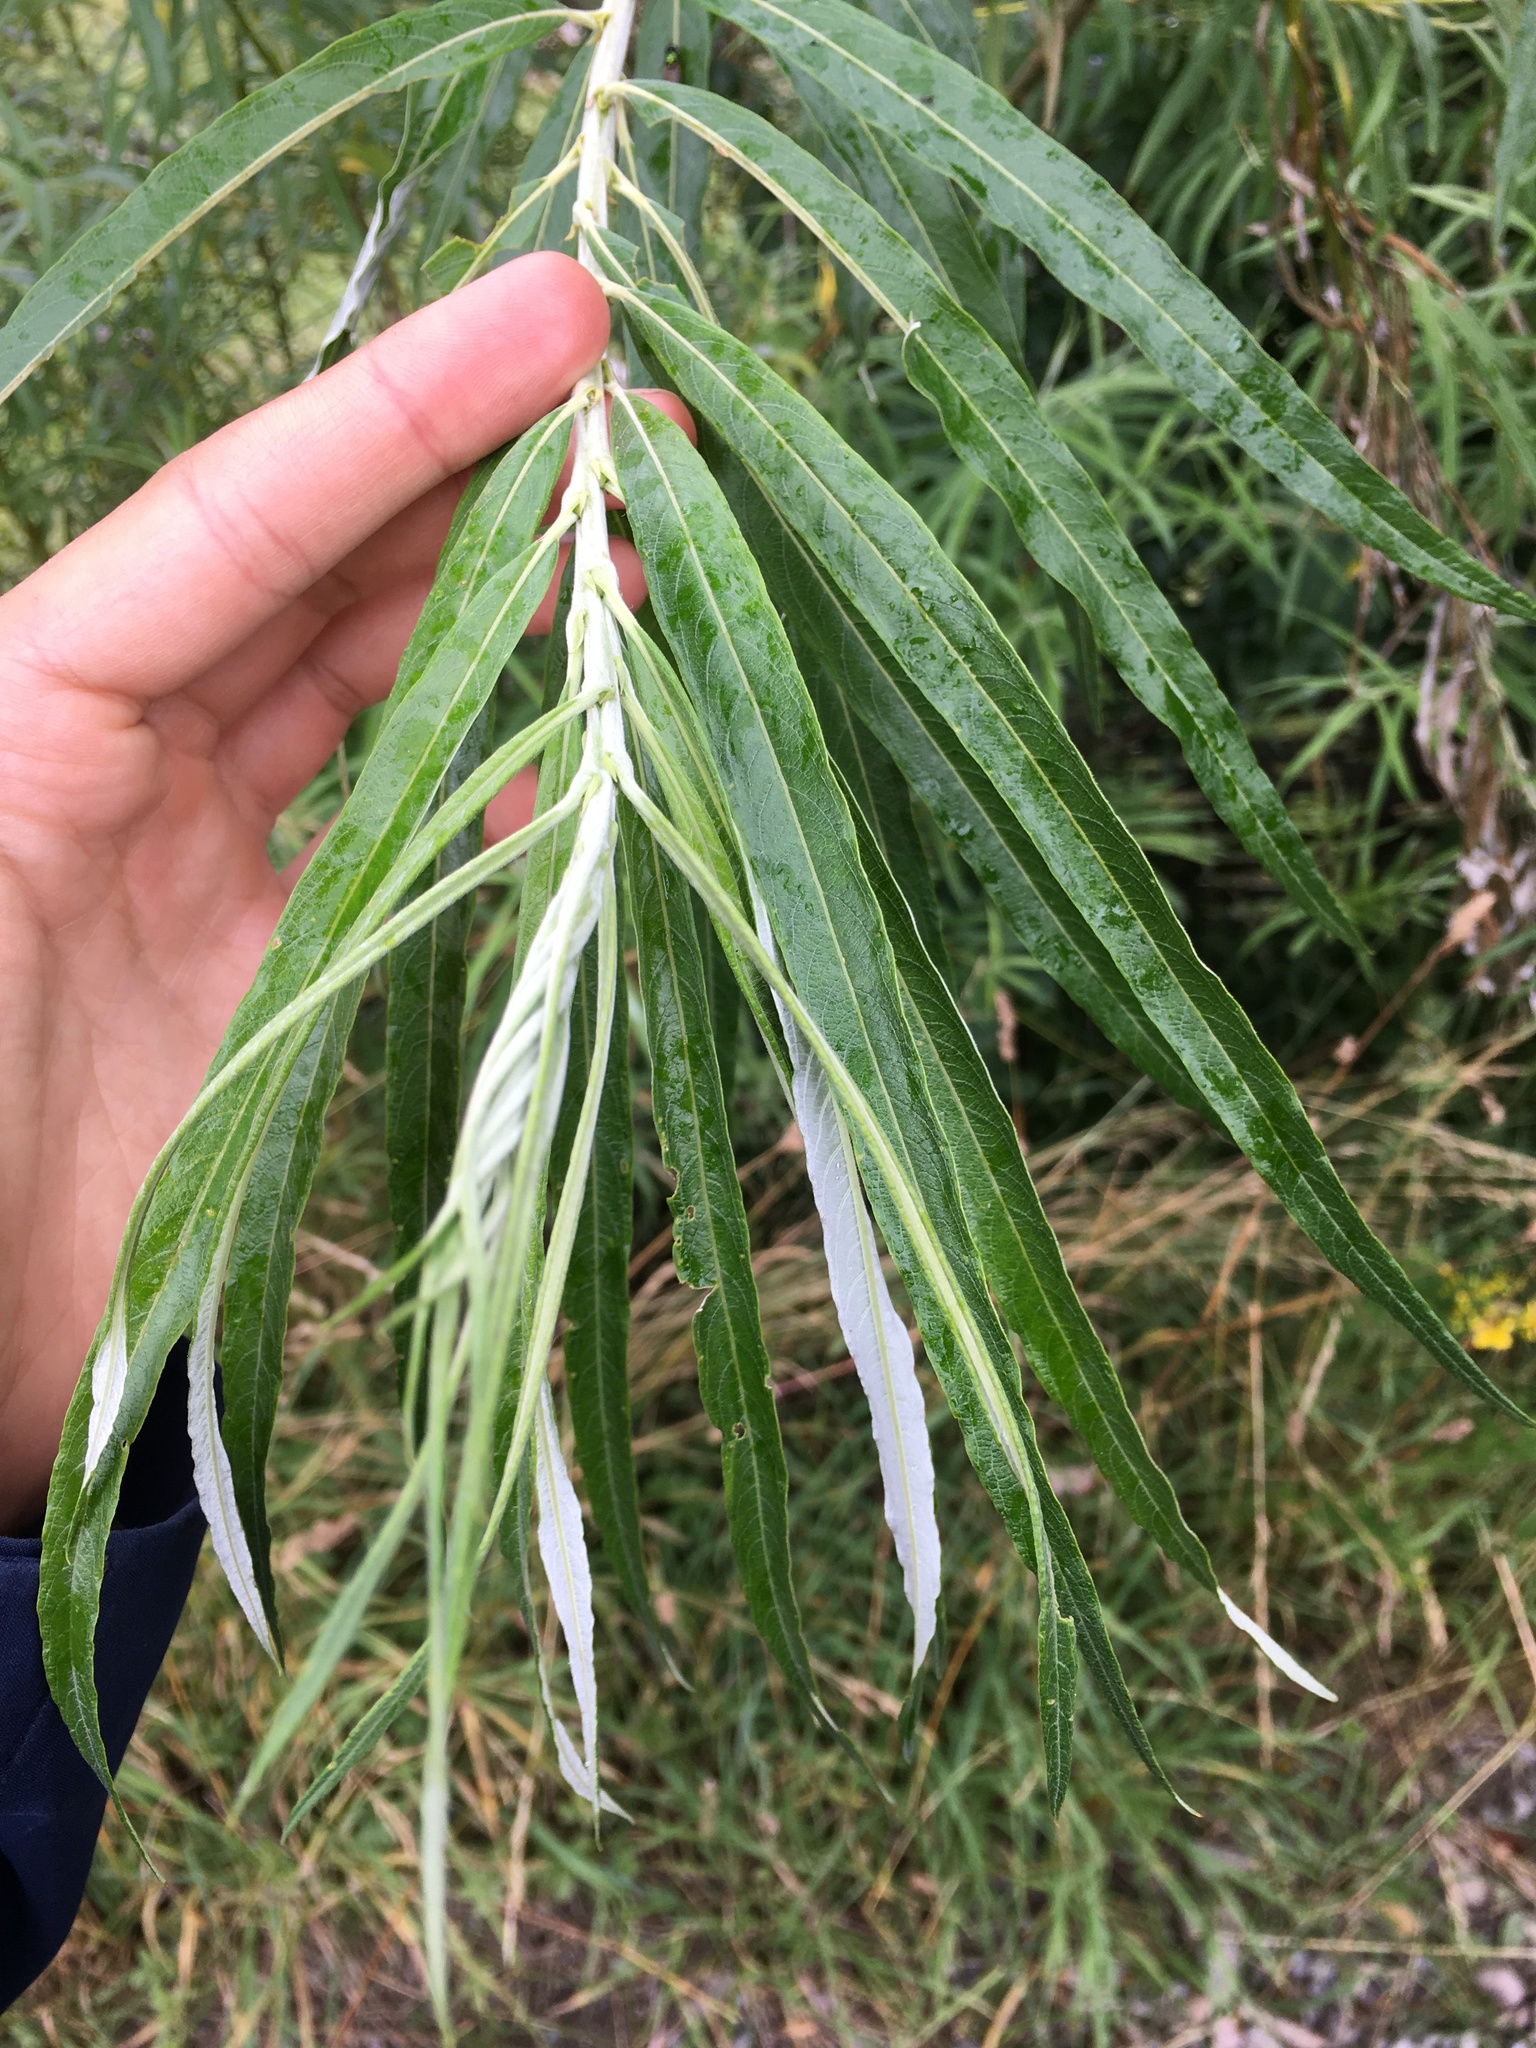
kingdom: Plantae
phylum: Tracheophyta
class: Magnoliopsida
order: Malpighiales
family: Salicaceae
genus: Salix
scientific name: Salix viminalis
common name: Osier
